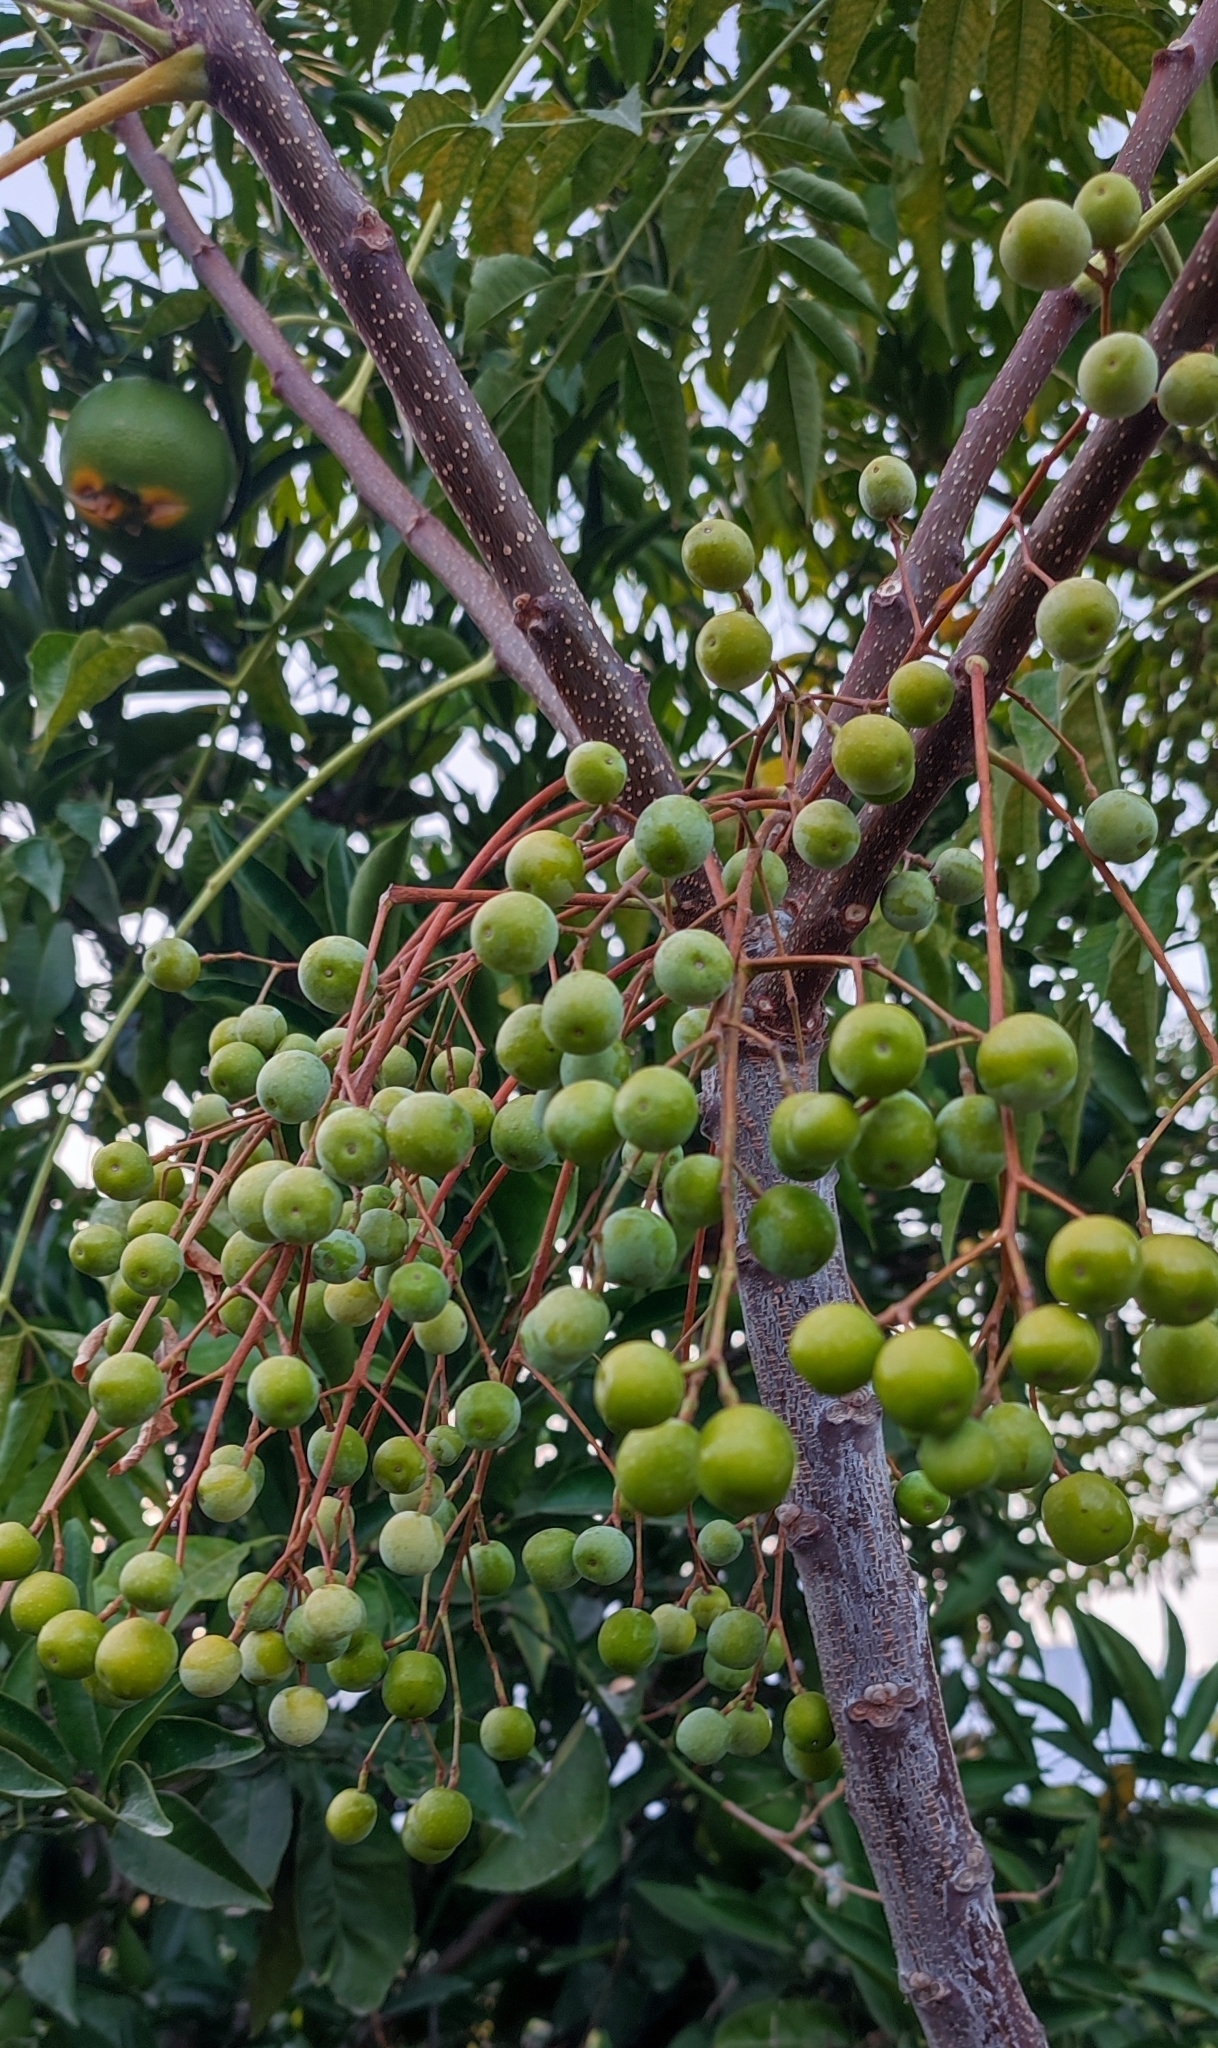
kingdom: Plantae
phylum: Tracheophyta
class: Magnoliopsida
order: Sapindales
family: Meliaceae
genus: Melia
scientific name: Melia azedarach
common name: Chinaberrytree
